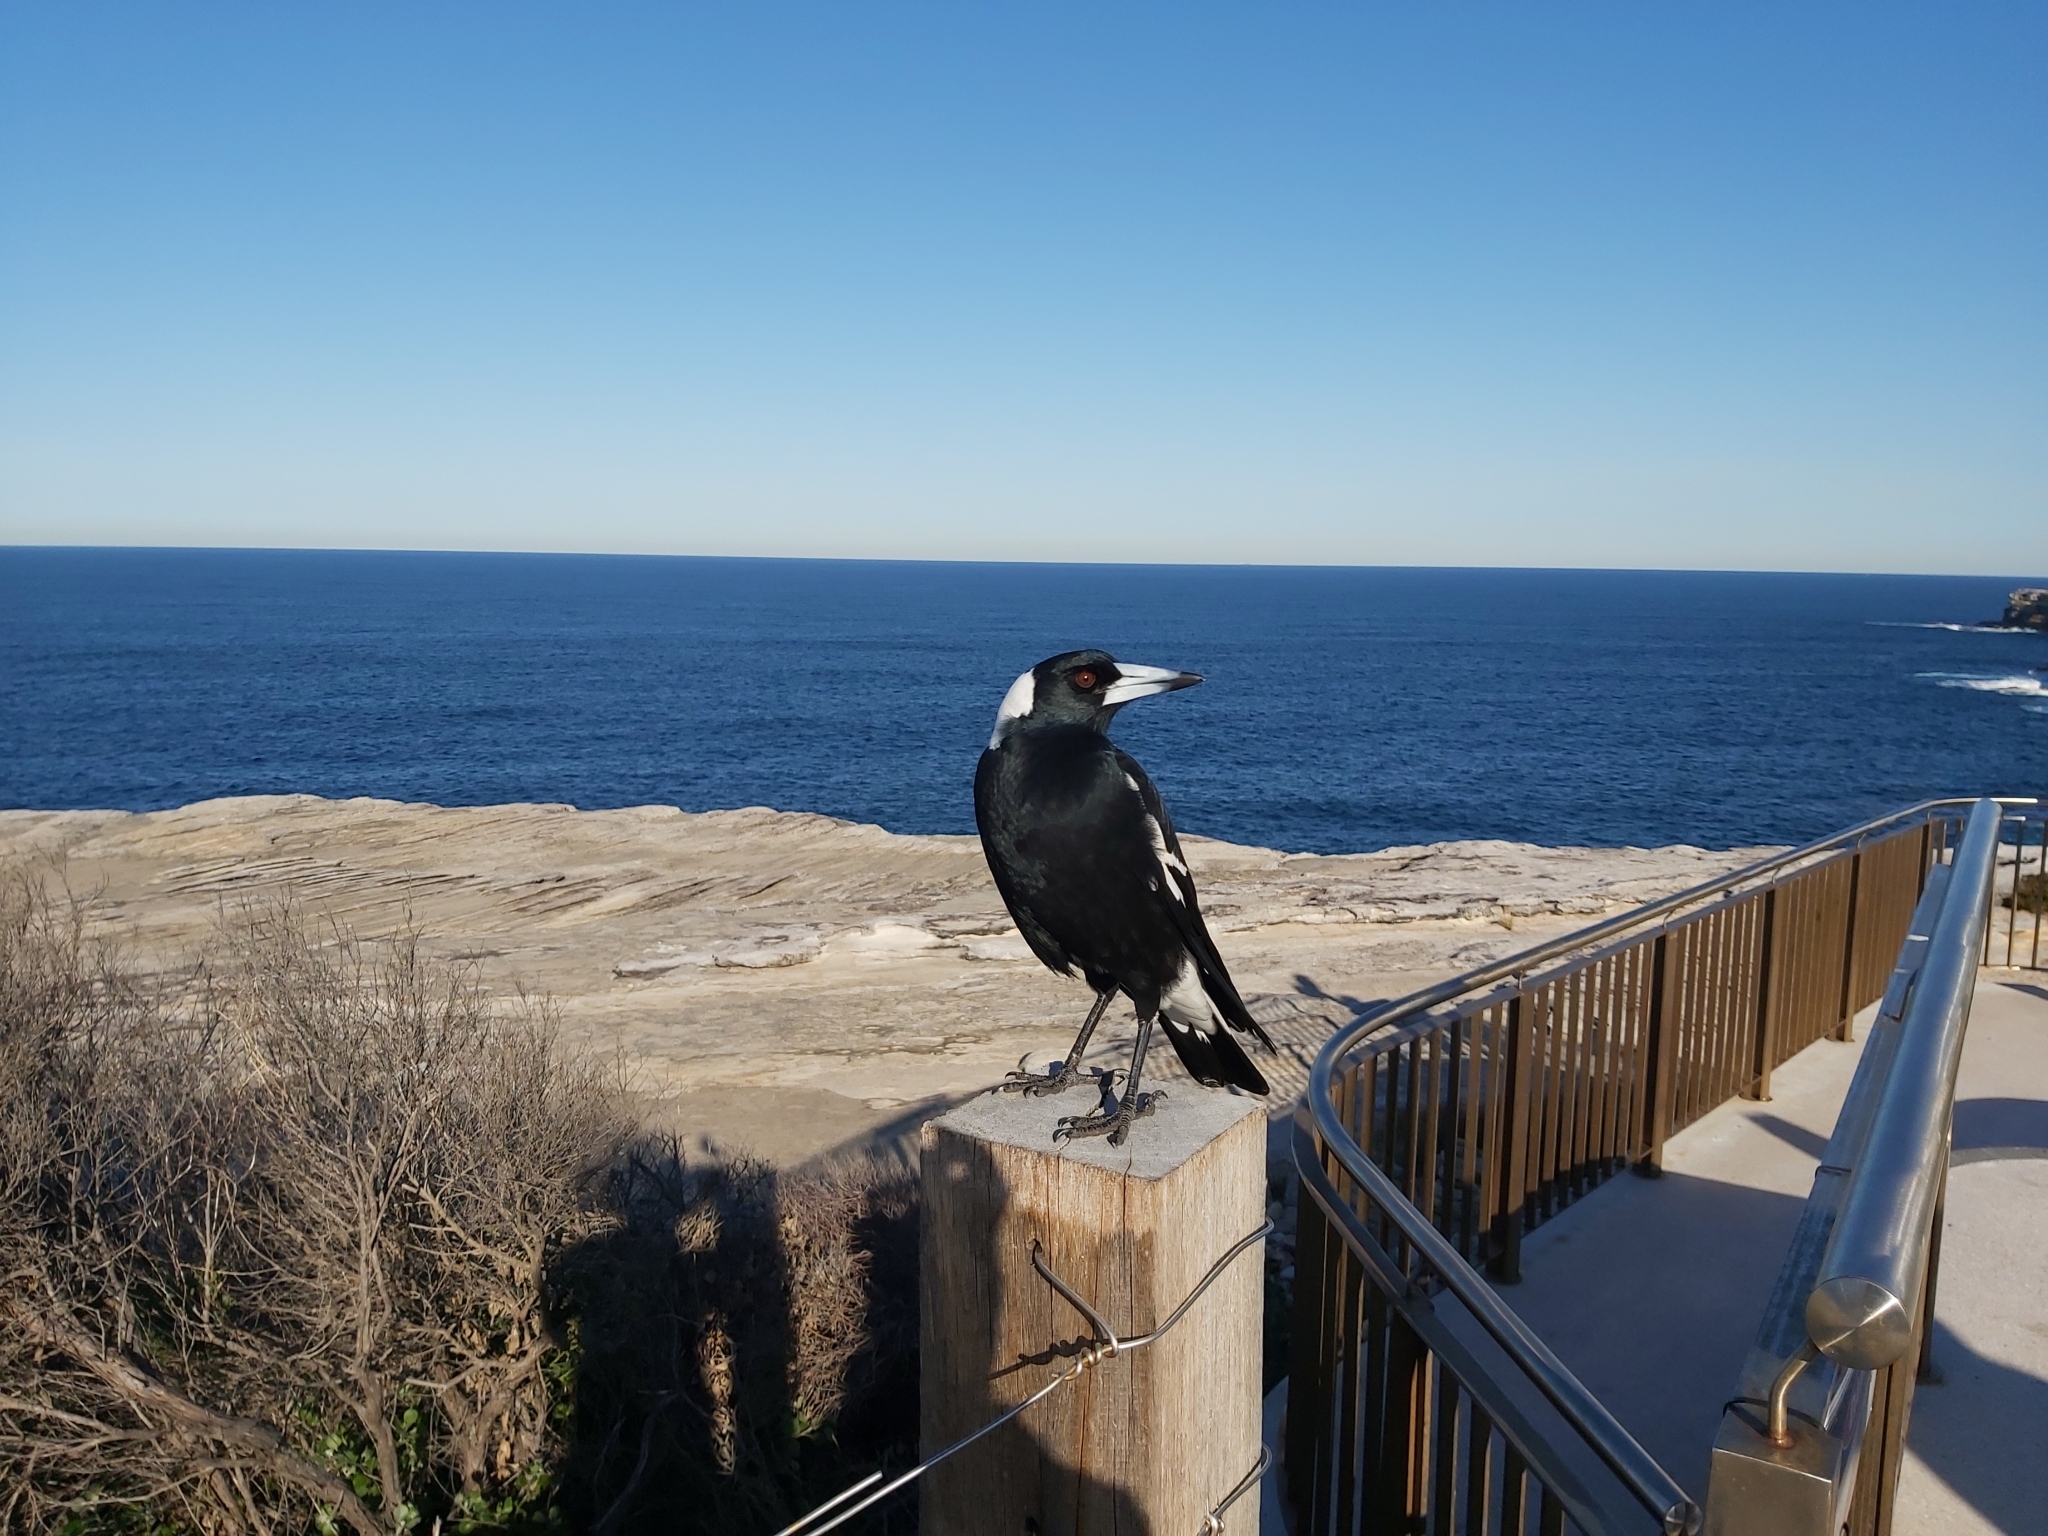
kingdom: Animalia
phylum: Chordata
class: Aves
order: Passeriformes
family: Cracticidae
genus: Gymnorhina
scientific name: Gymnorhina tibicen
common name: Australian magpie
